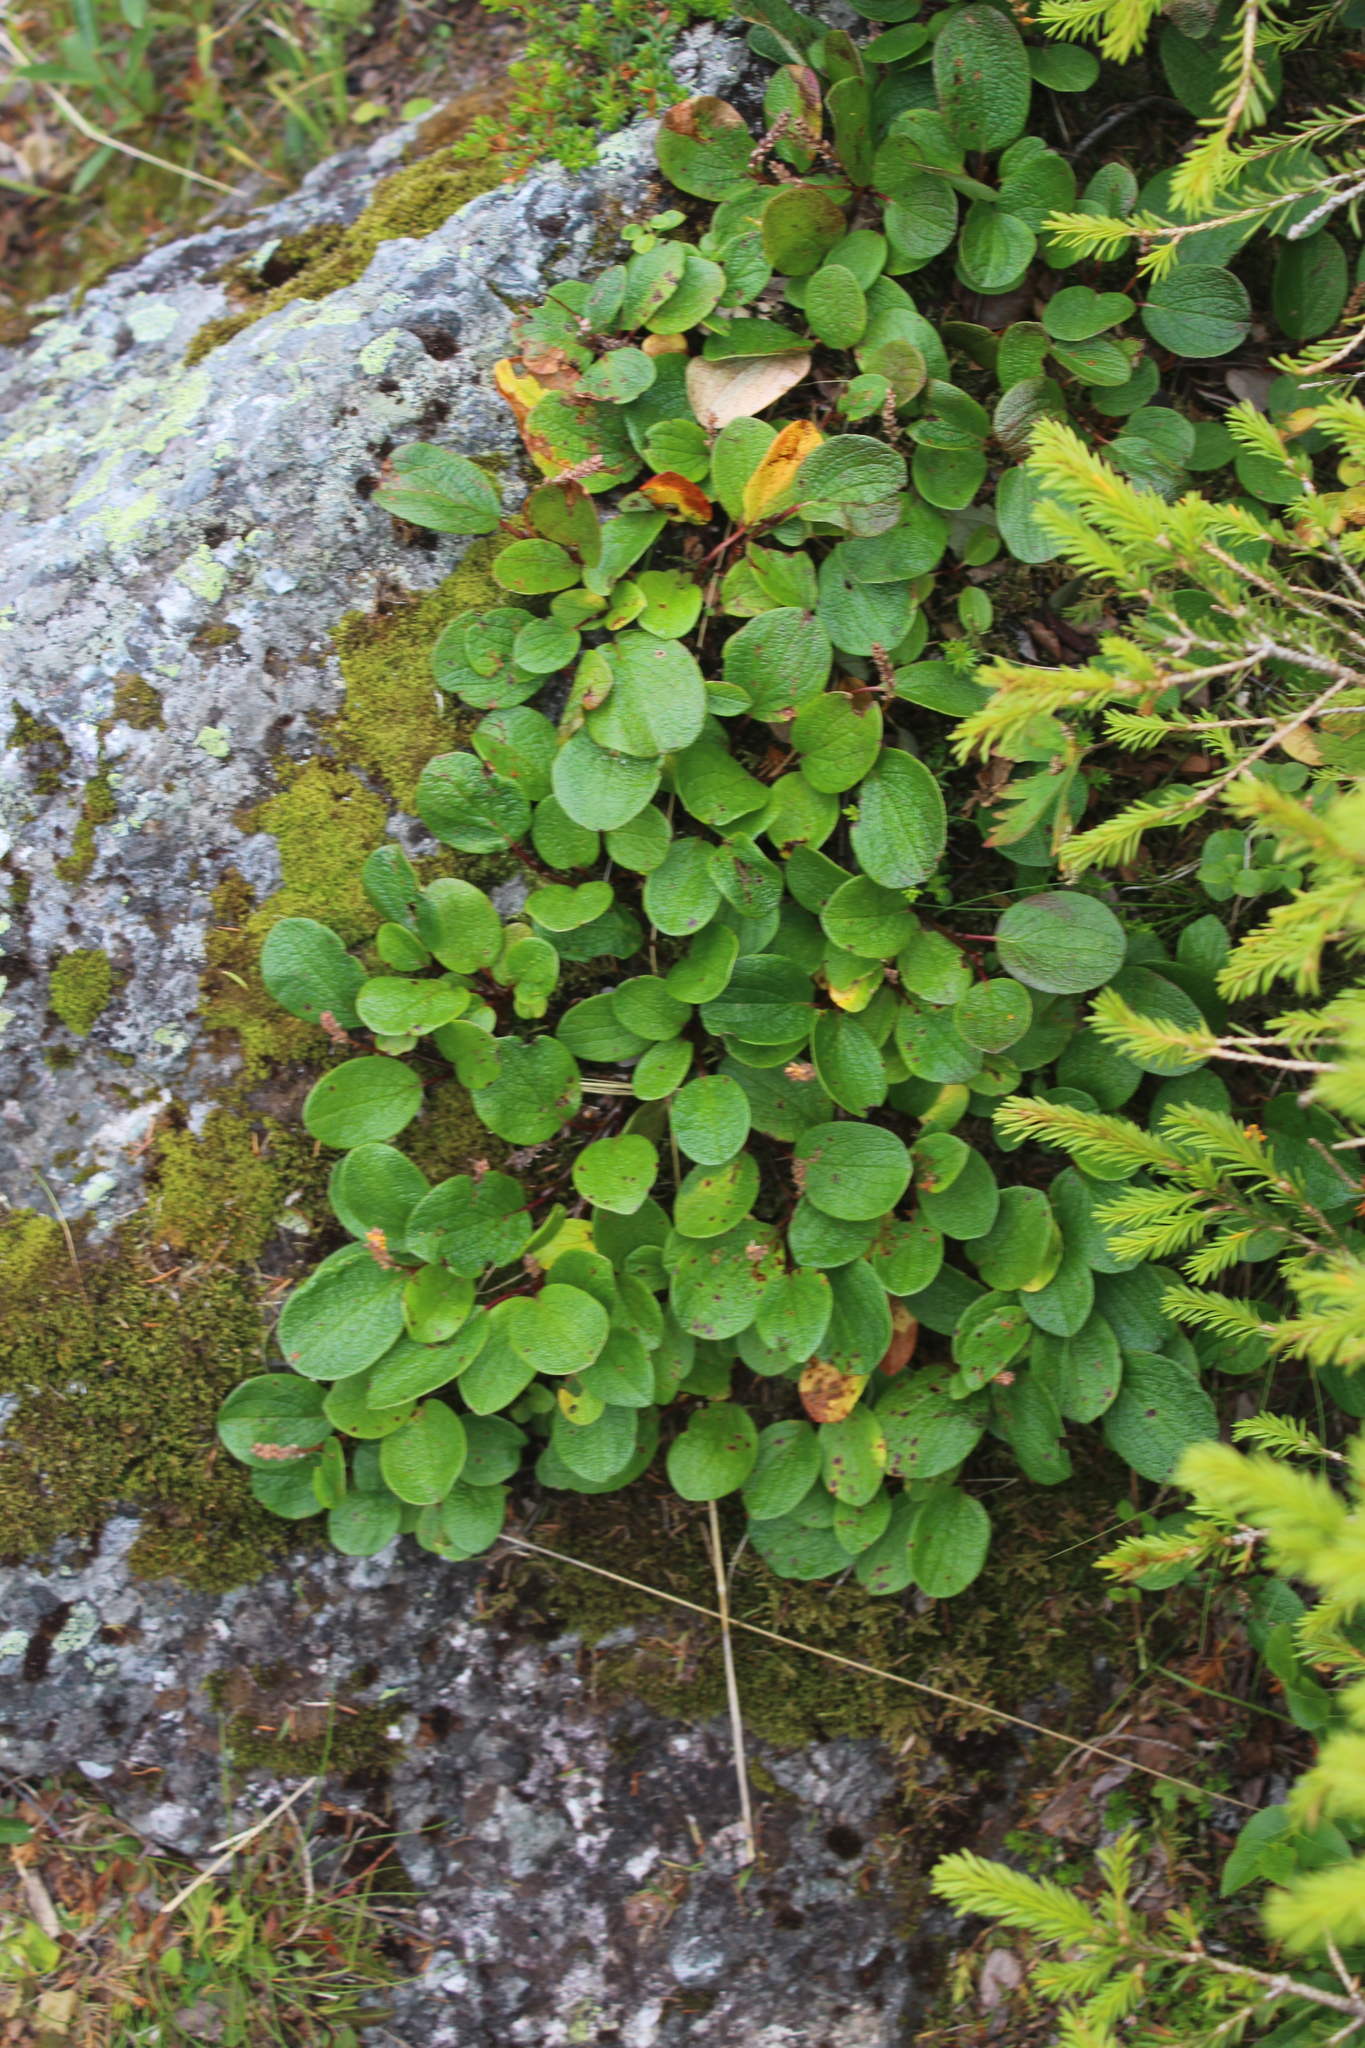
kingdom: Plantae
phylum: Tracheophyta
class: Magnoliopsida
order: Malpighiales
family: Salicaceae
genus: Salix
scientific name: Salix reticulata
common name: Net-leaved willow
